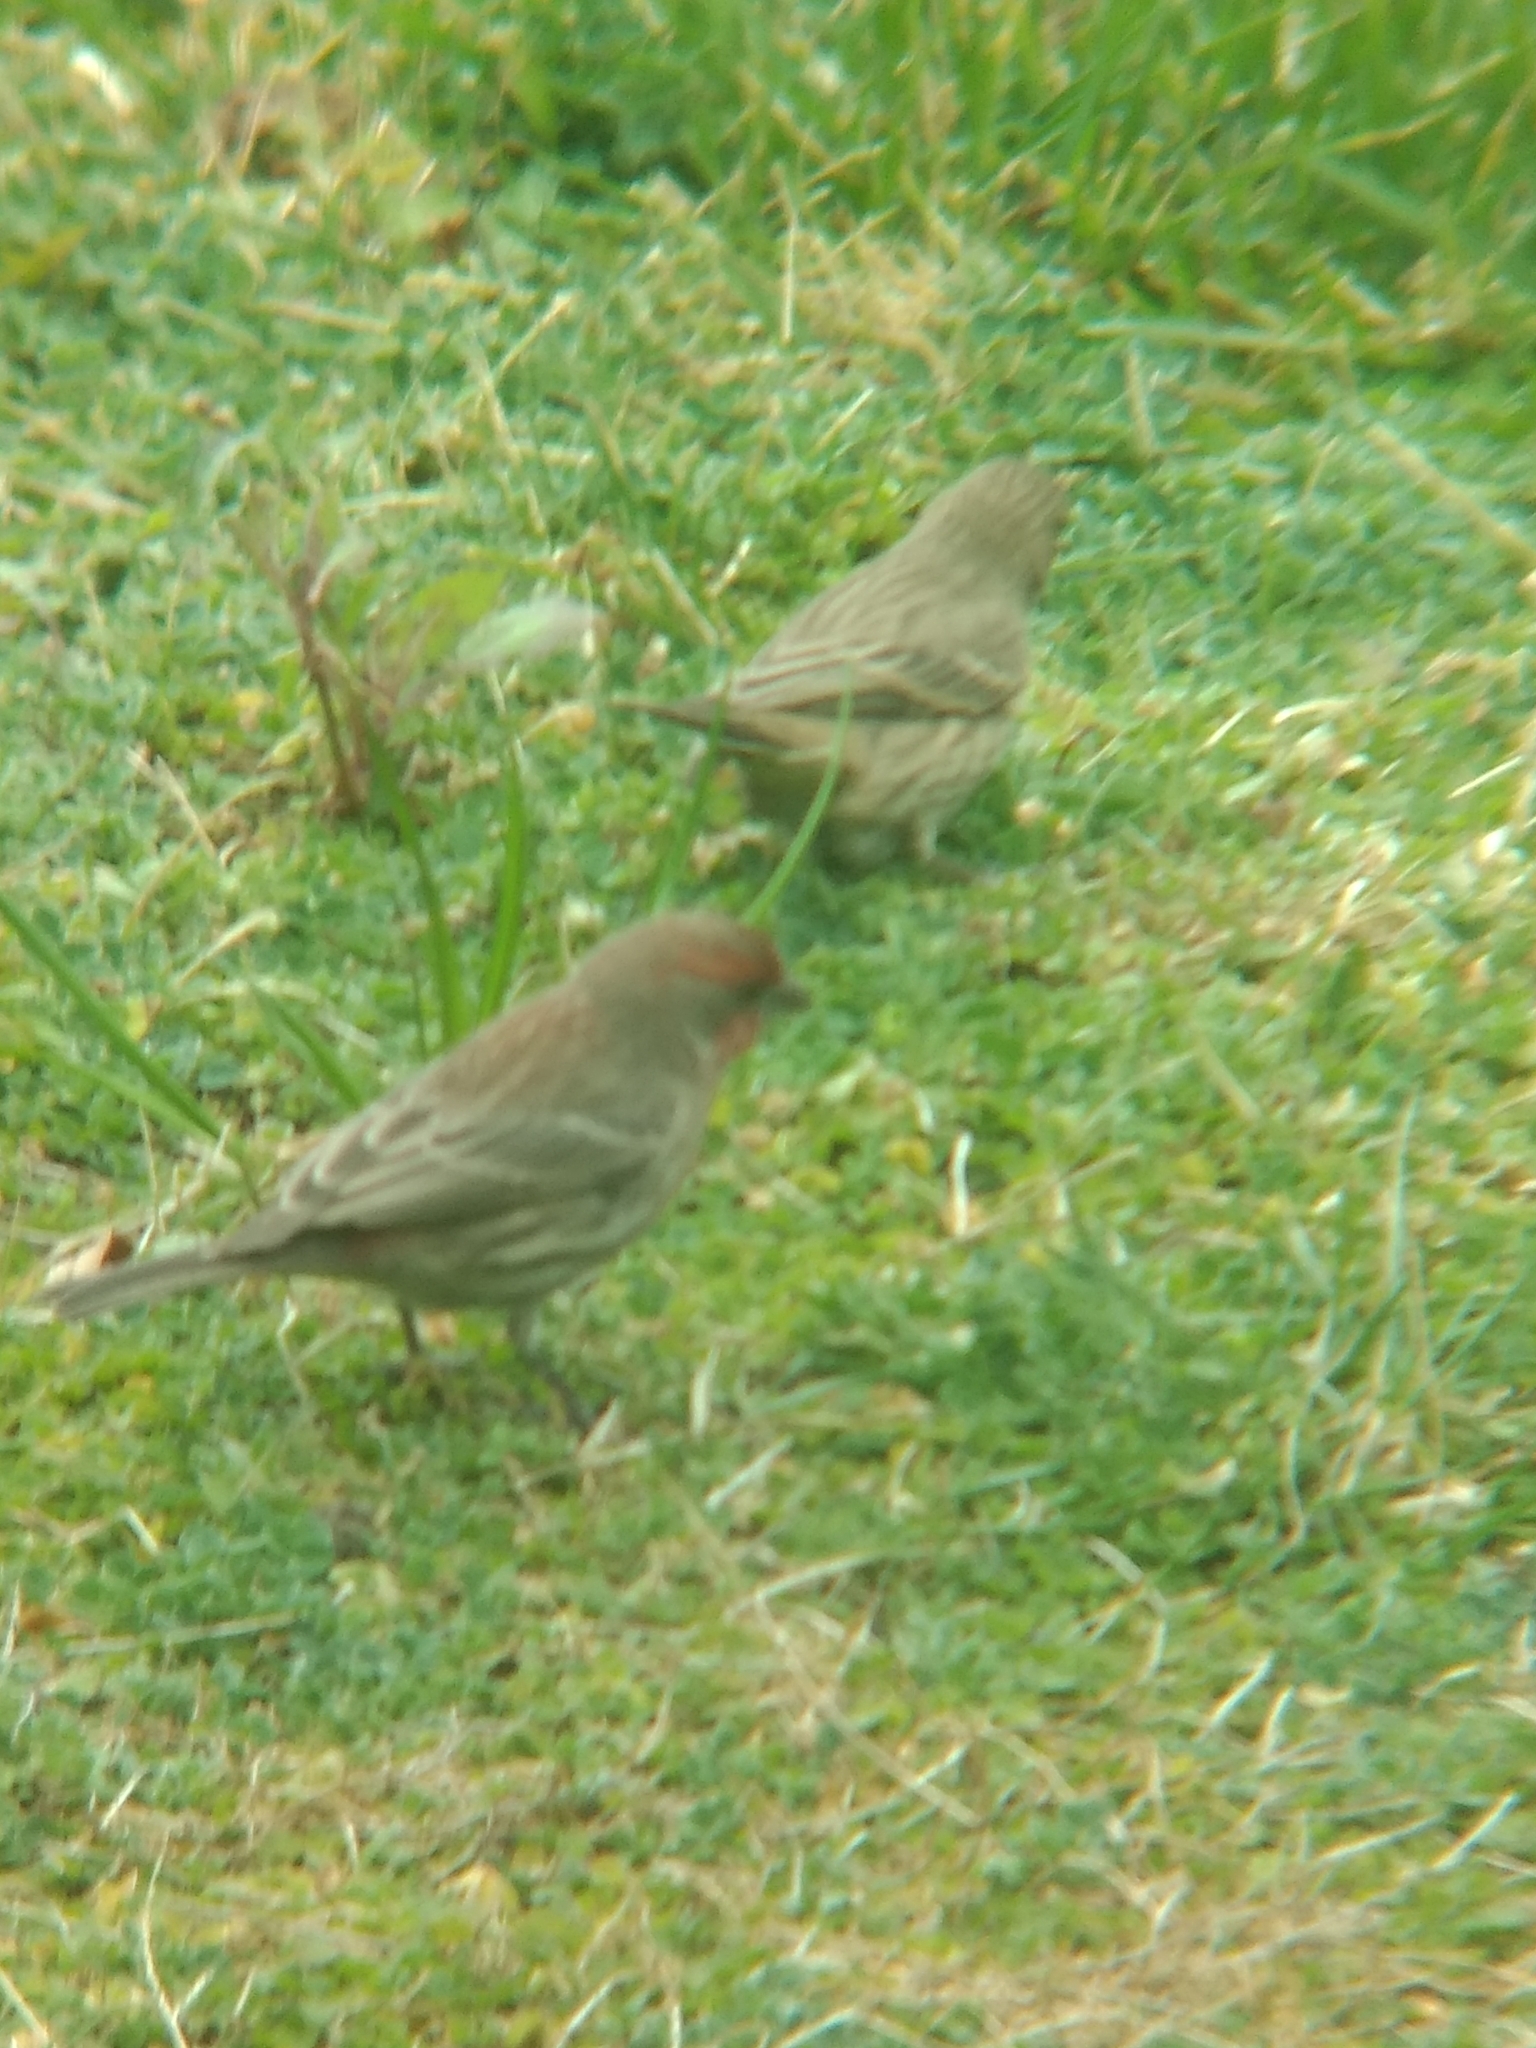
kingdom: Animalia
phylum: Chordata
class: Aves
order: Passeriformes
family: Fringillidae
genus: Haemorhous
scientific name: Haemorhous mexicanus
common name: House finch
